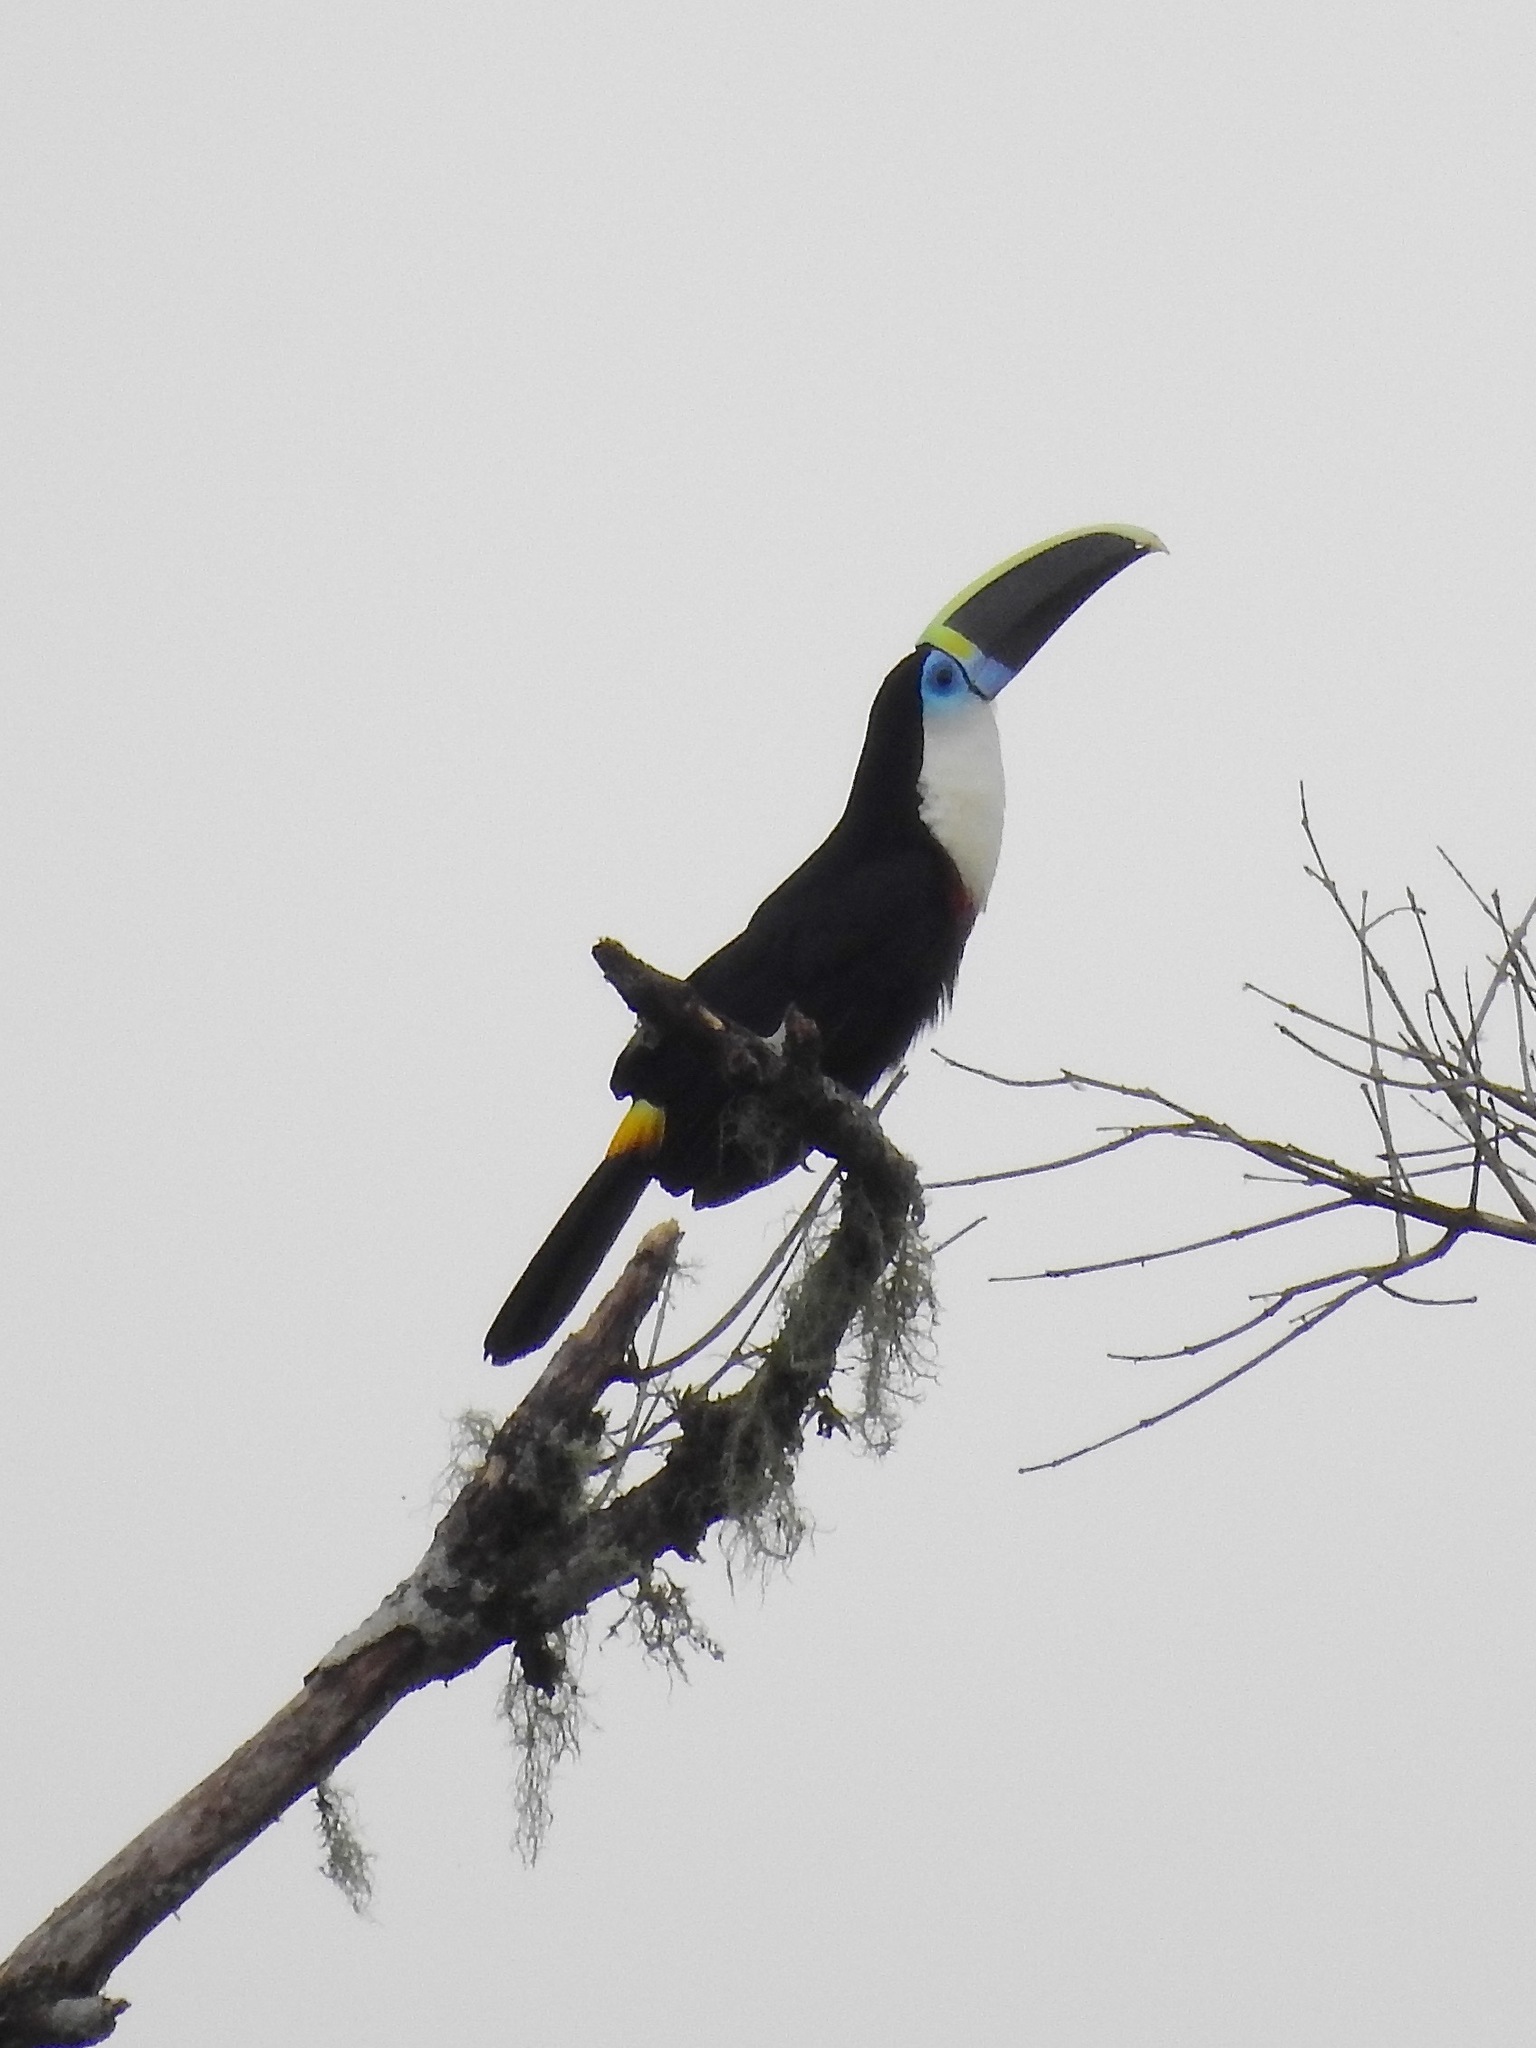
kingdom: Animalia
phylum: Chordata
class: Aves
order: Piciformes
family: Ramphastidae
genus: Ramphastos
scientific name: Ramphastos tucanus
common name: White-throated toucan
